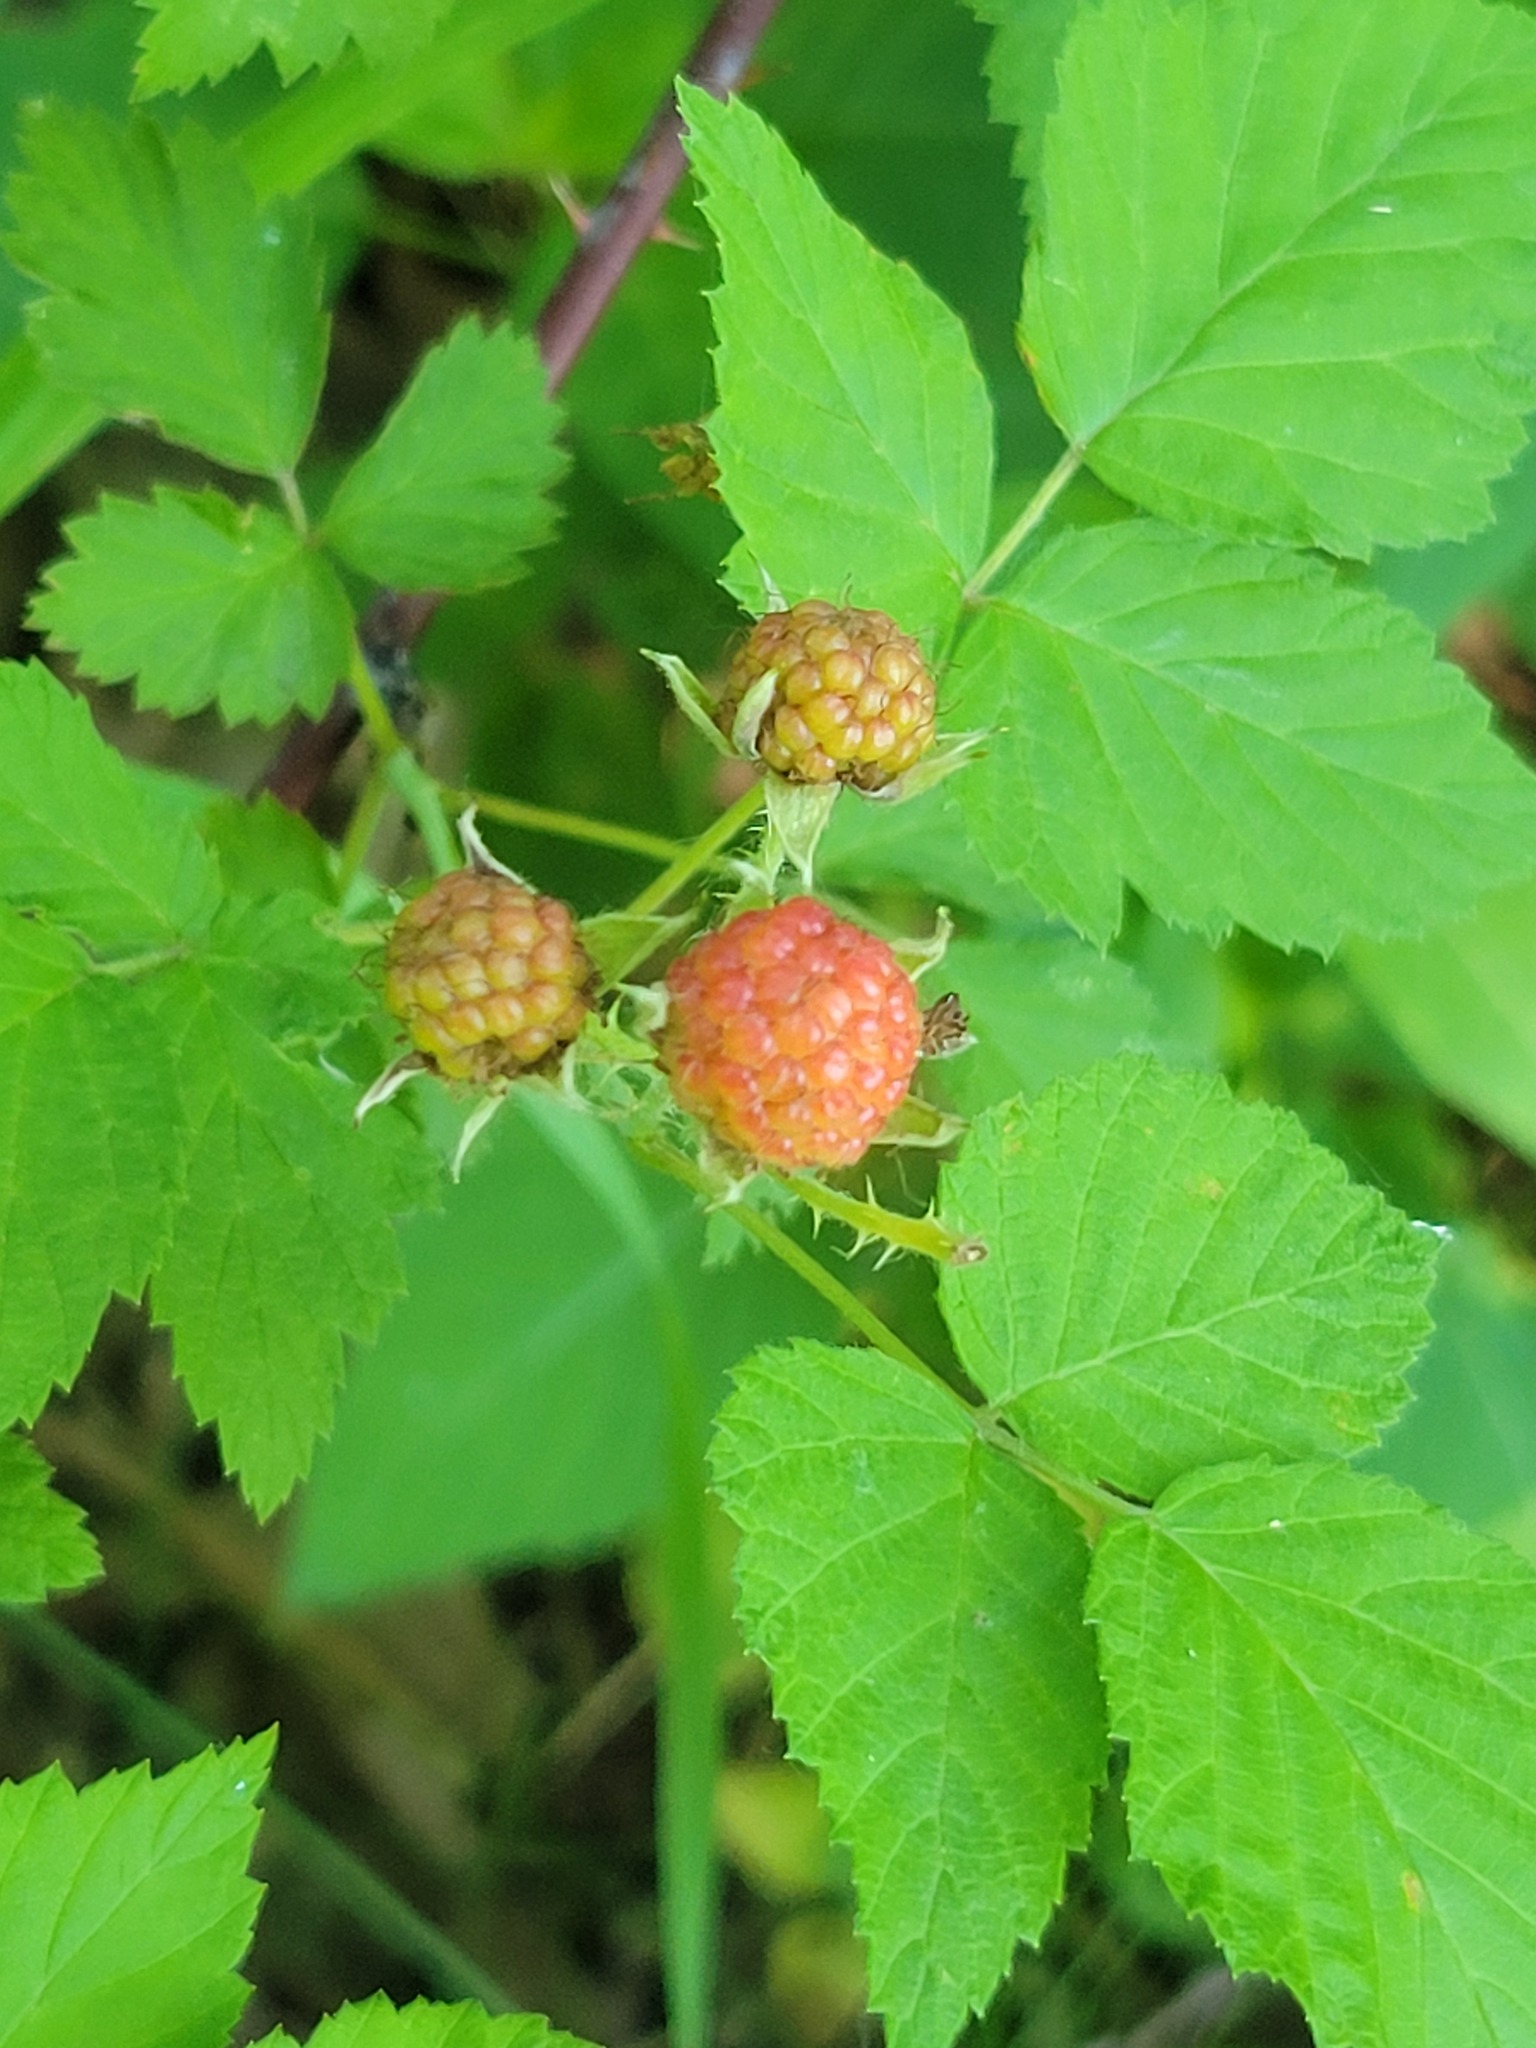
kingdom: Plantae
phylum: Tracheophyta
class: Magnoliopsida
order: Rosales
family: Rosaceae
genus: Rubus
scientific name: Rubus occidentalis
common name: Black raspberry
